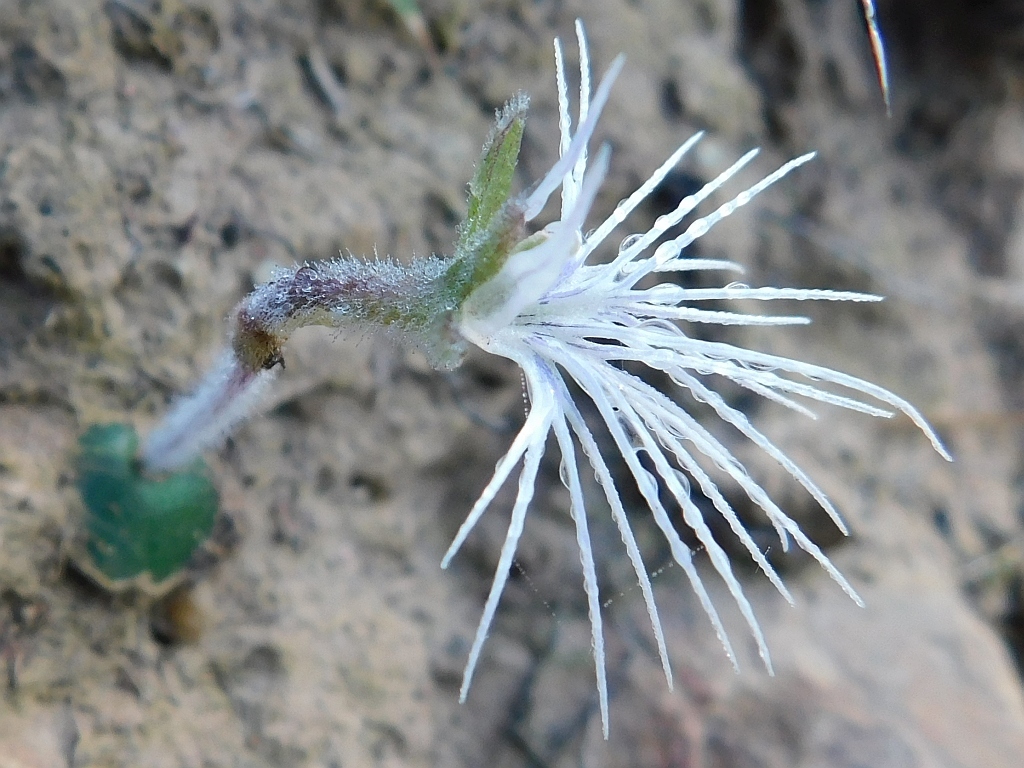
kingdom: Plantae
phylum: Tracheophyta
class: Liliopsida
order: Asparagales
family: Orchidaceae
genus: Holothrix
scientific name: Holothrix burmanniana
